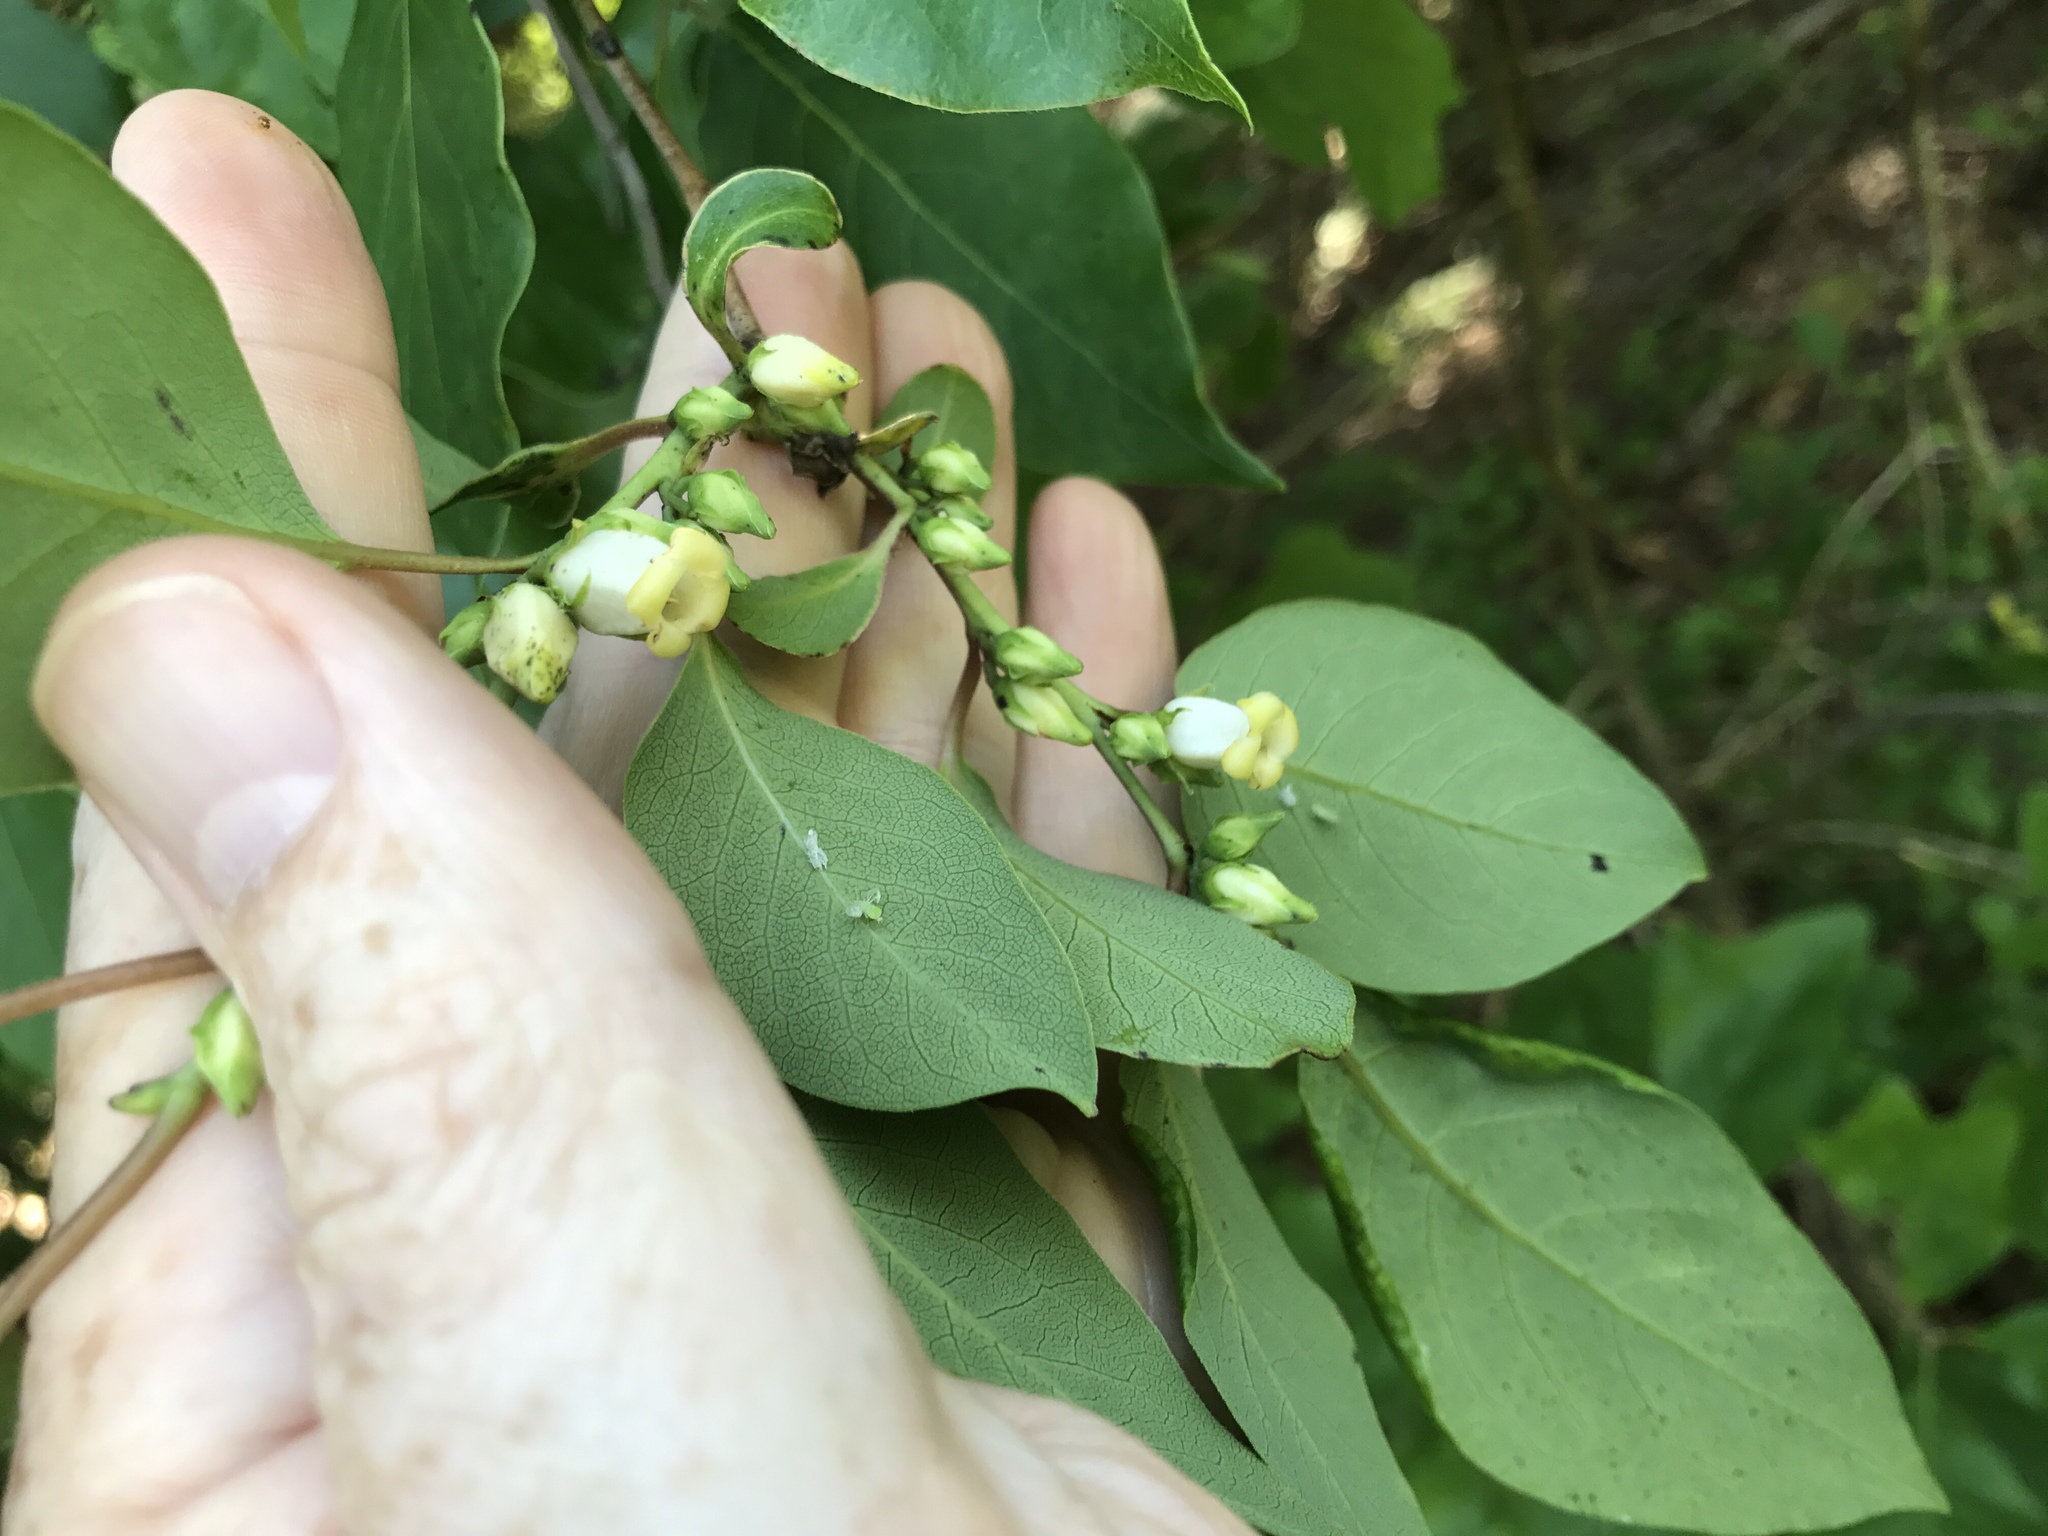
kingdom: Plantae
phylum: Tracheophyta
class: Magnoliopsida
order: Ericales
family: Ebenaceae
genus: Diospyros
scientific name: Diospyros virginiana
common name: Persimmon
